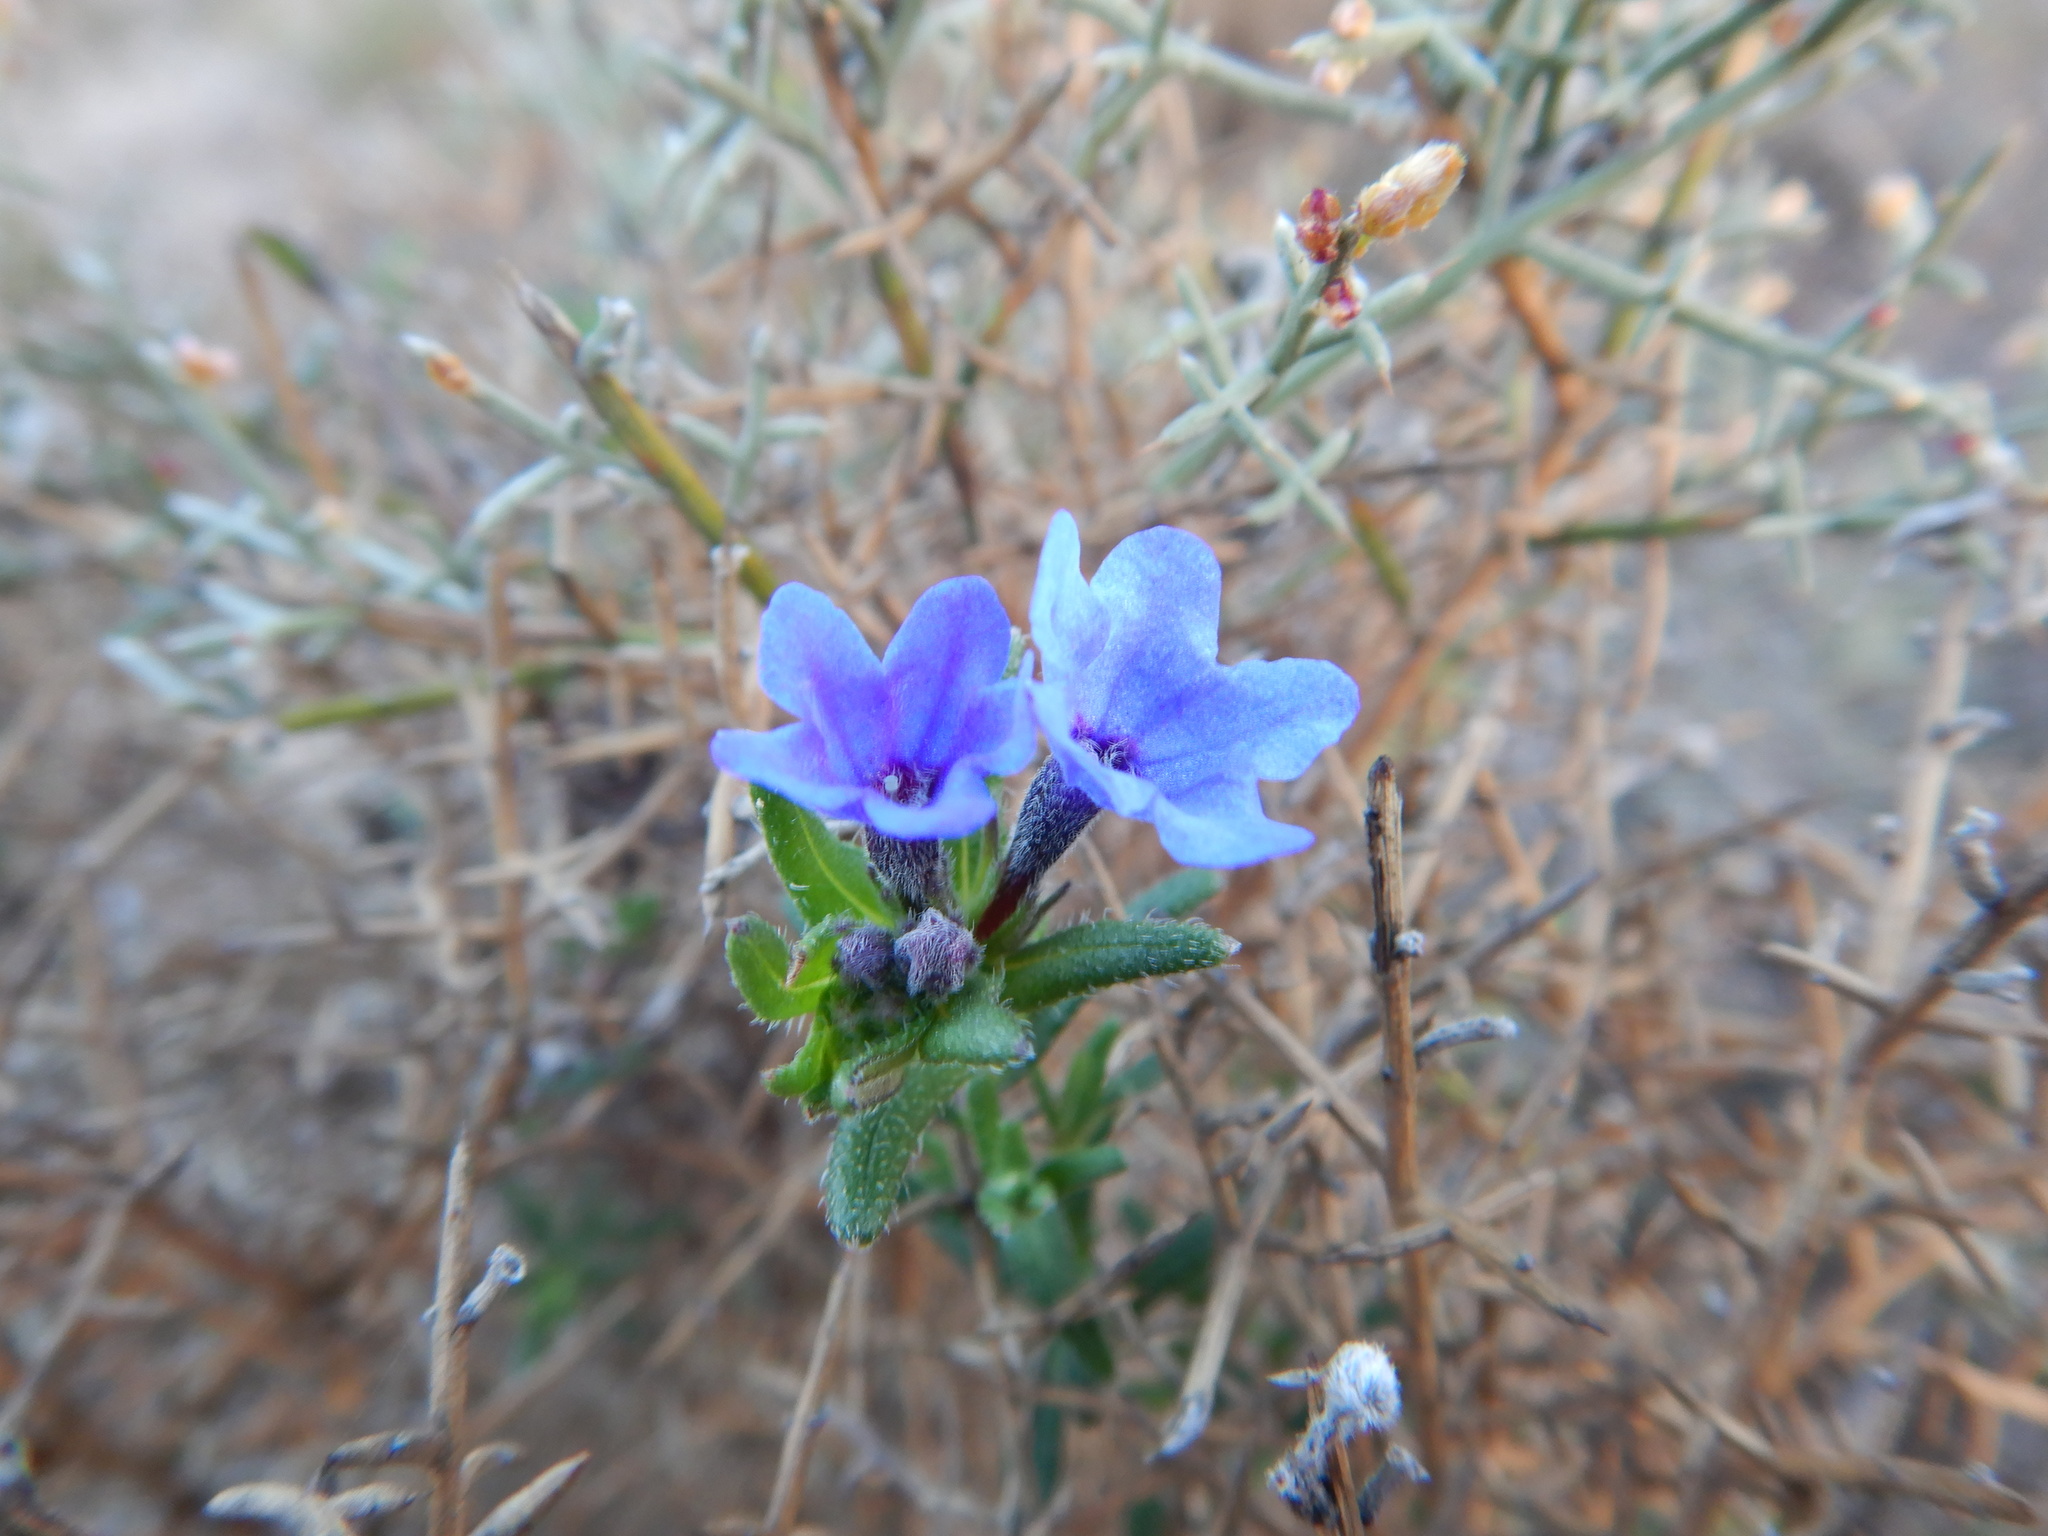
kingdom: Plantae
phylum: Tracheophyta
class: Magnoliopsida
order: Boraginales
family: Boraginaceae
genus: Glandora
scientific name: Glandora prostrata
